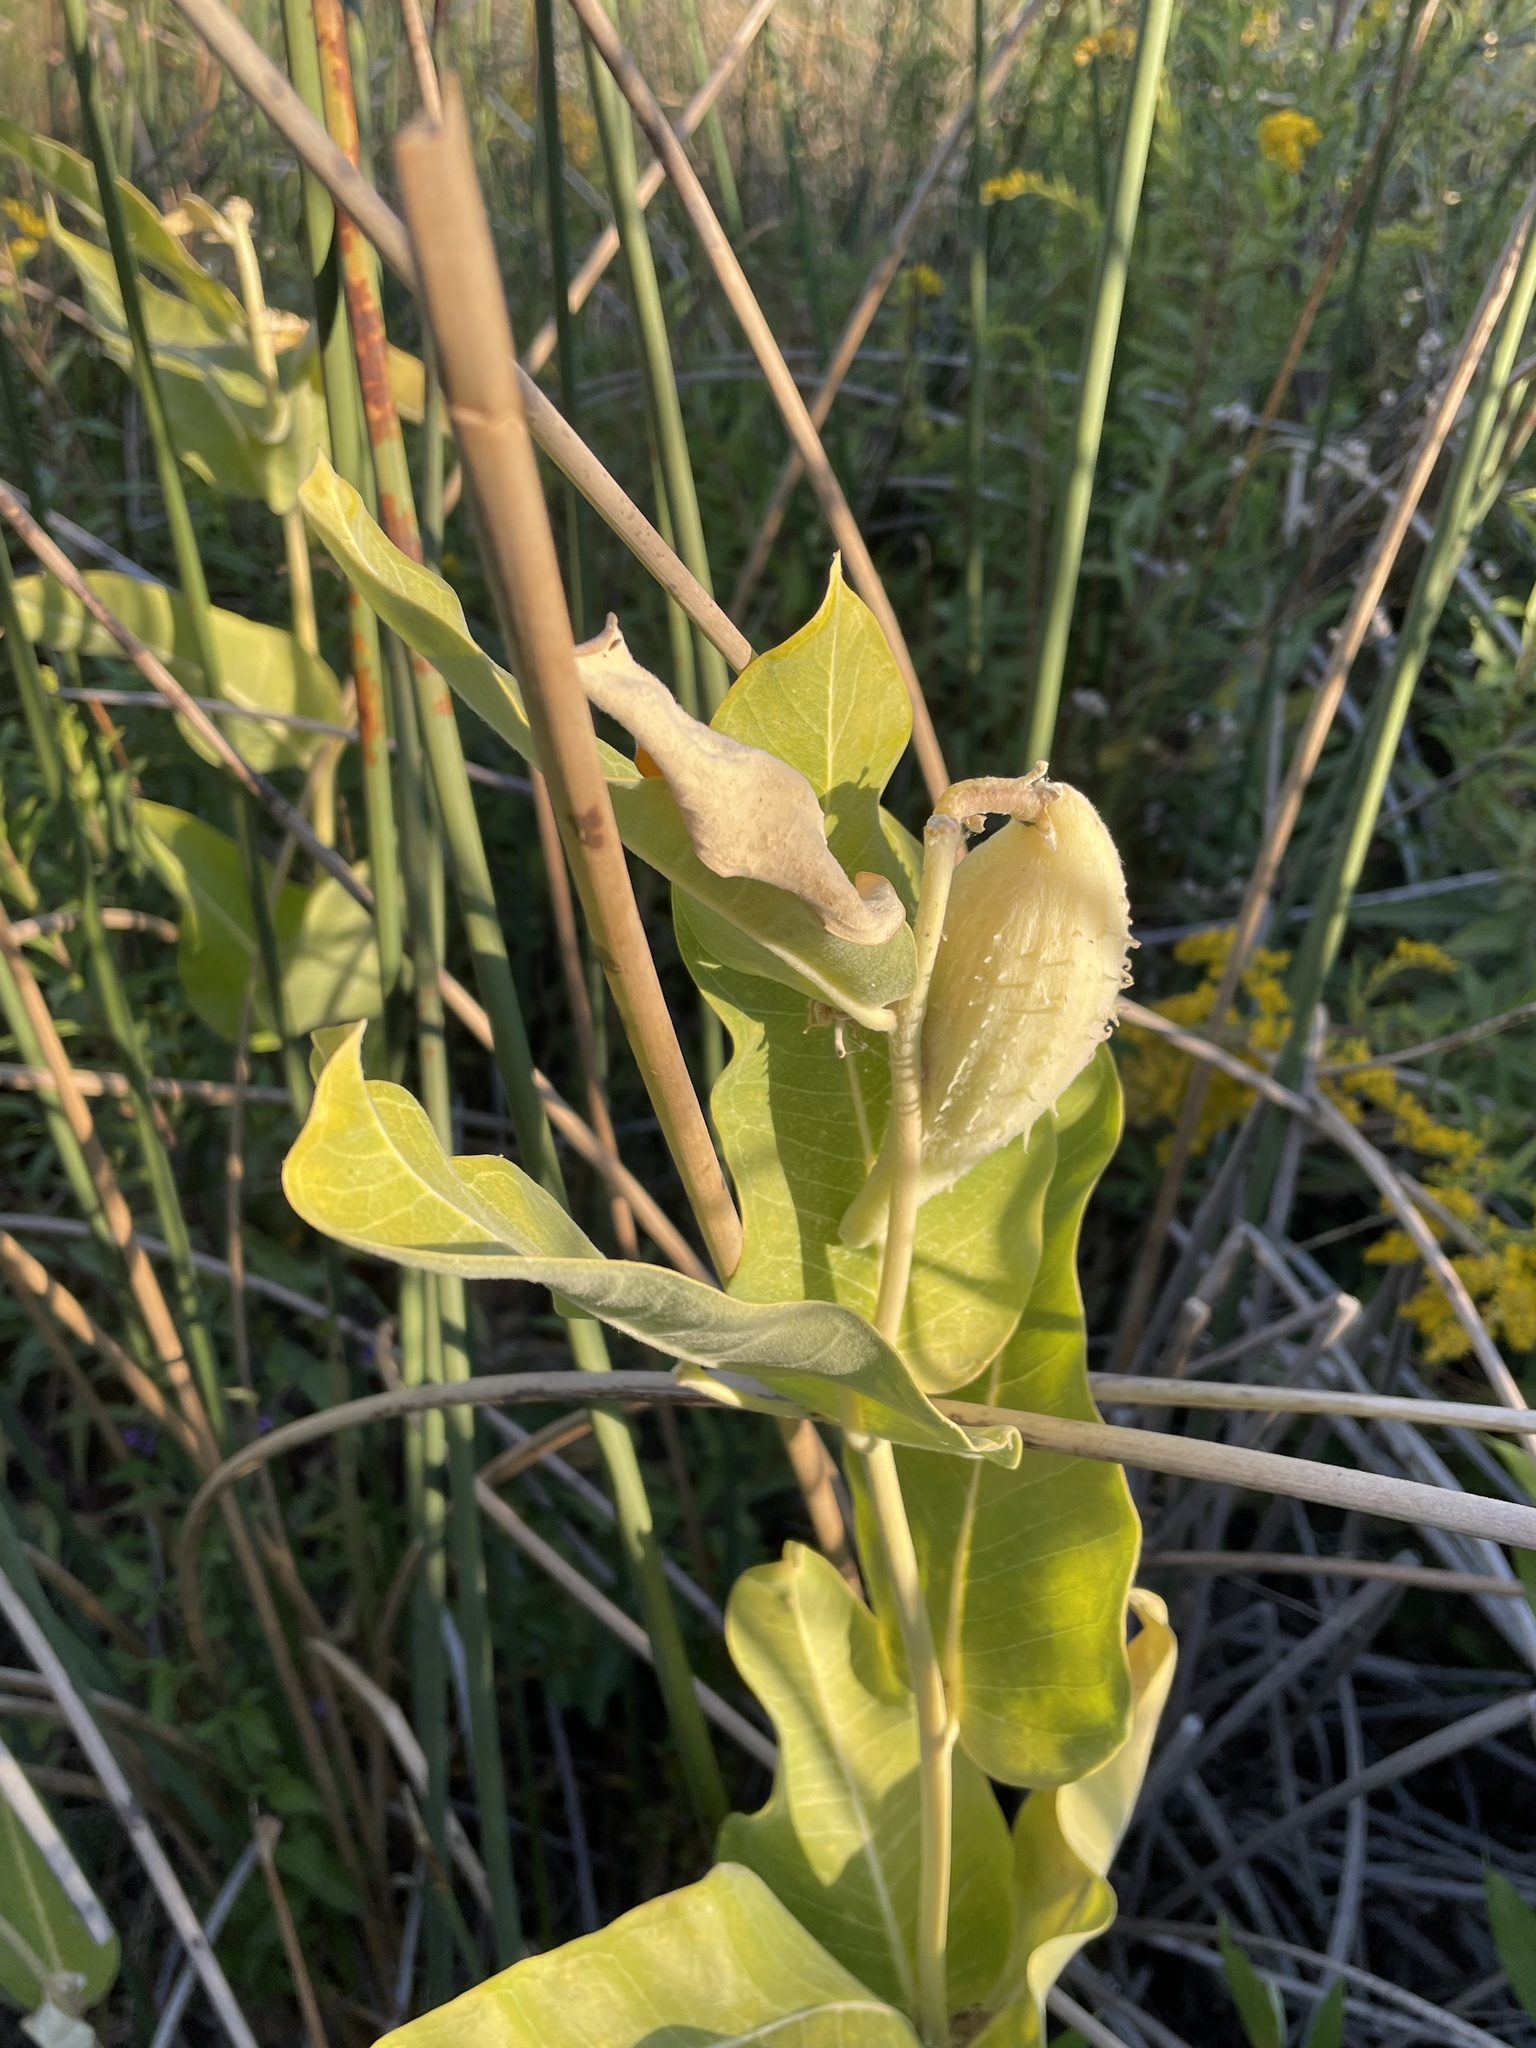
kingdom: Plantae
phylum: Tracheophyta
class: Magnoliopsida
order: Gentianales
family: Apocynaceae
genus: Asclepias
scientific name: Asclepias speciosa
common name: Showy milkweed
